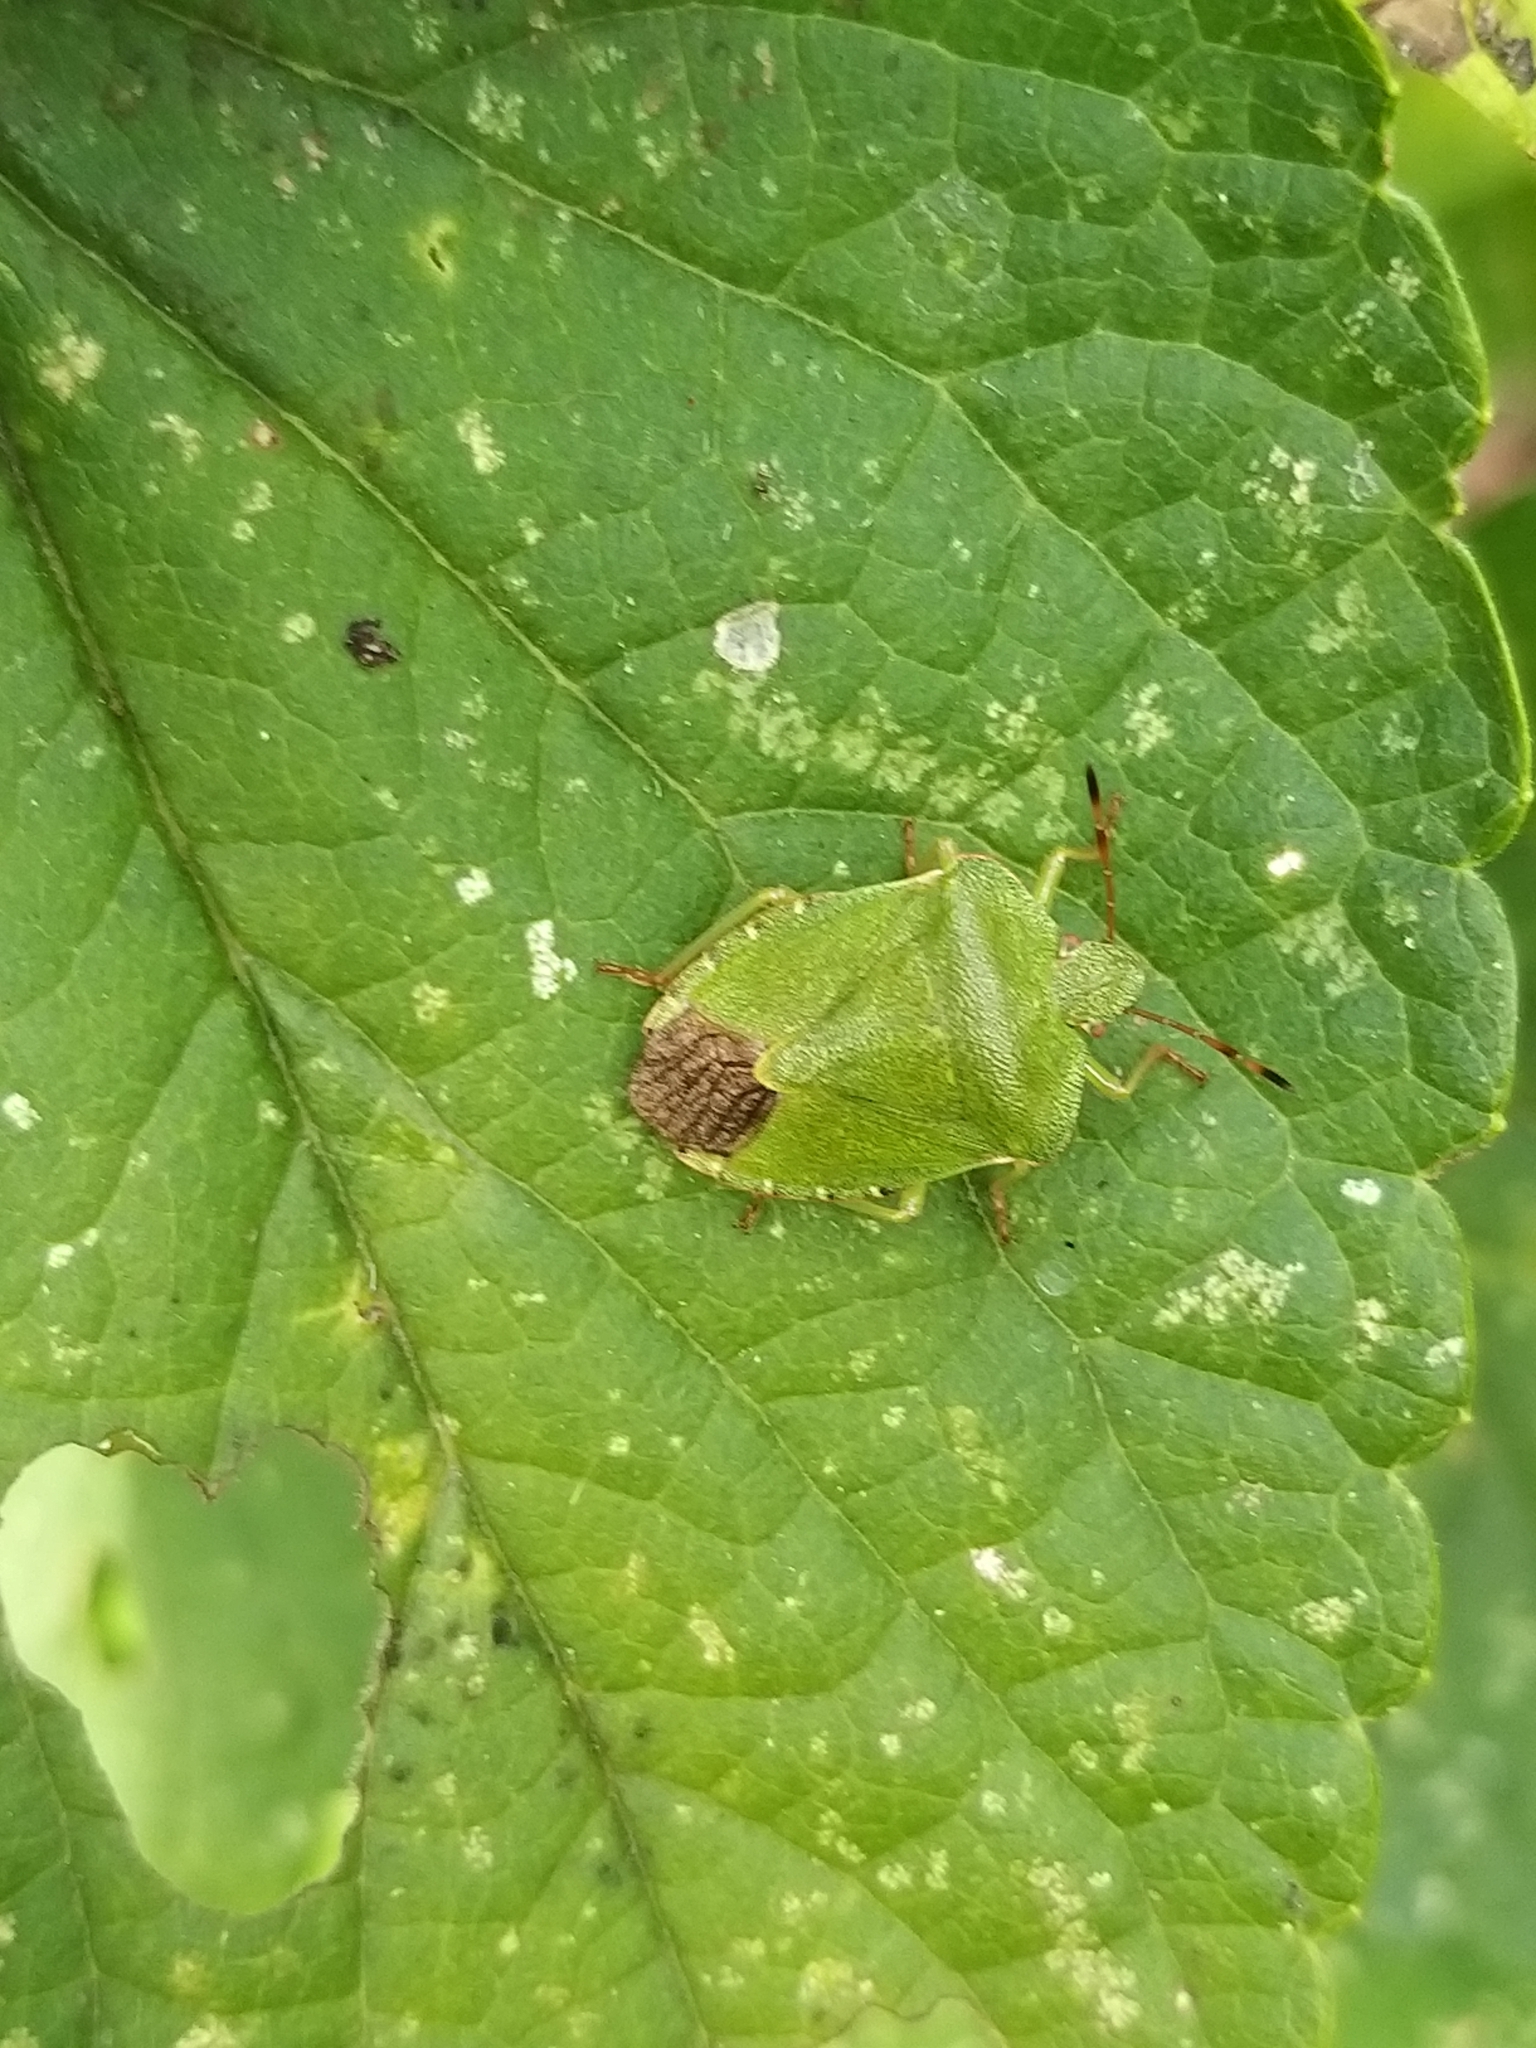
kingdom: Animalia
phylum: Arthropoda
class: Insecta
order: Hemiptera
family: Pentatomidae
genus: Palomena
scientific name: Palomena prasina
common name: Green shieldbug
